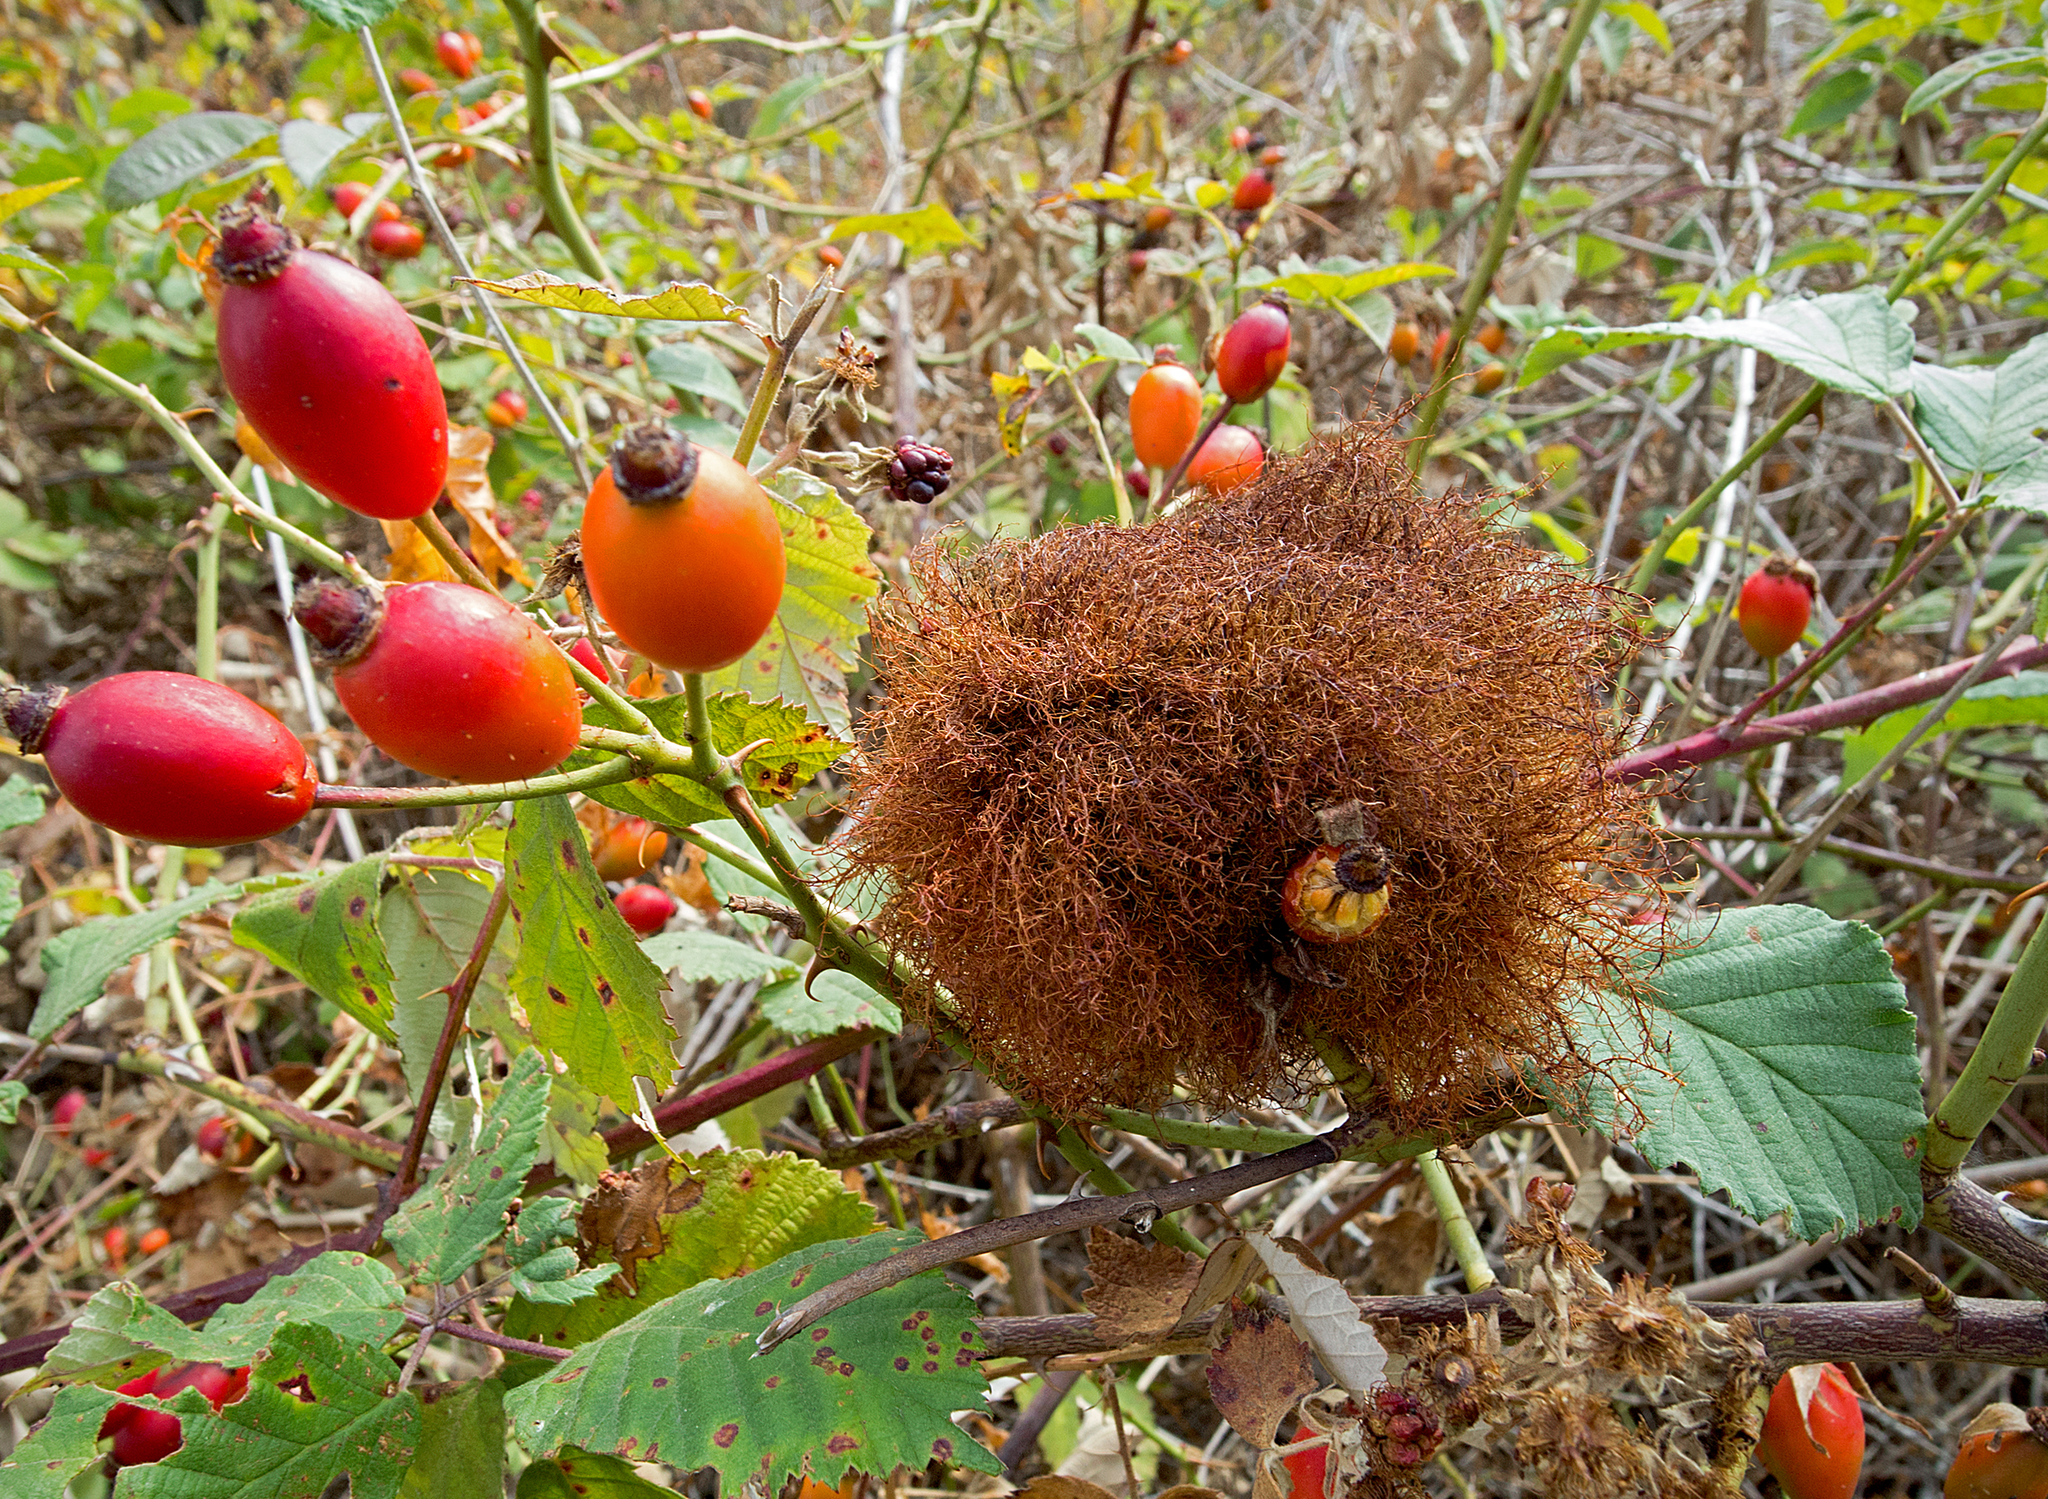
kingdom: Animalia
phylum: Arthropoda
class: Insecta
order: Hymenoptera
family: Cynipidae
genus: Diplolepis
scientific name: Diplolepis rosae
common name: Bedeguar gall
